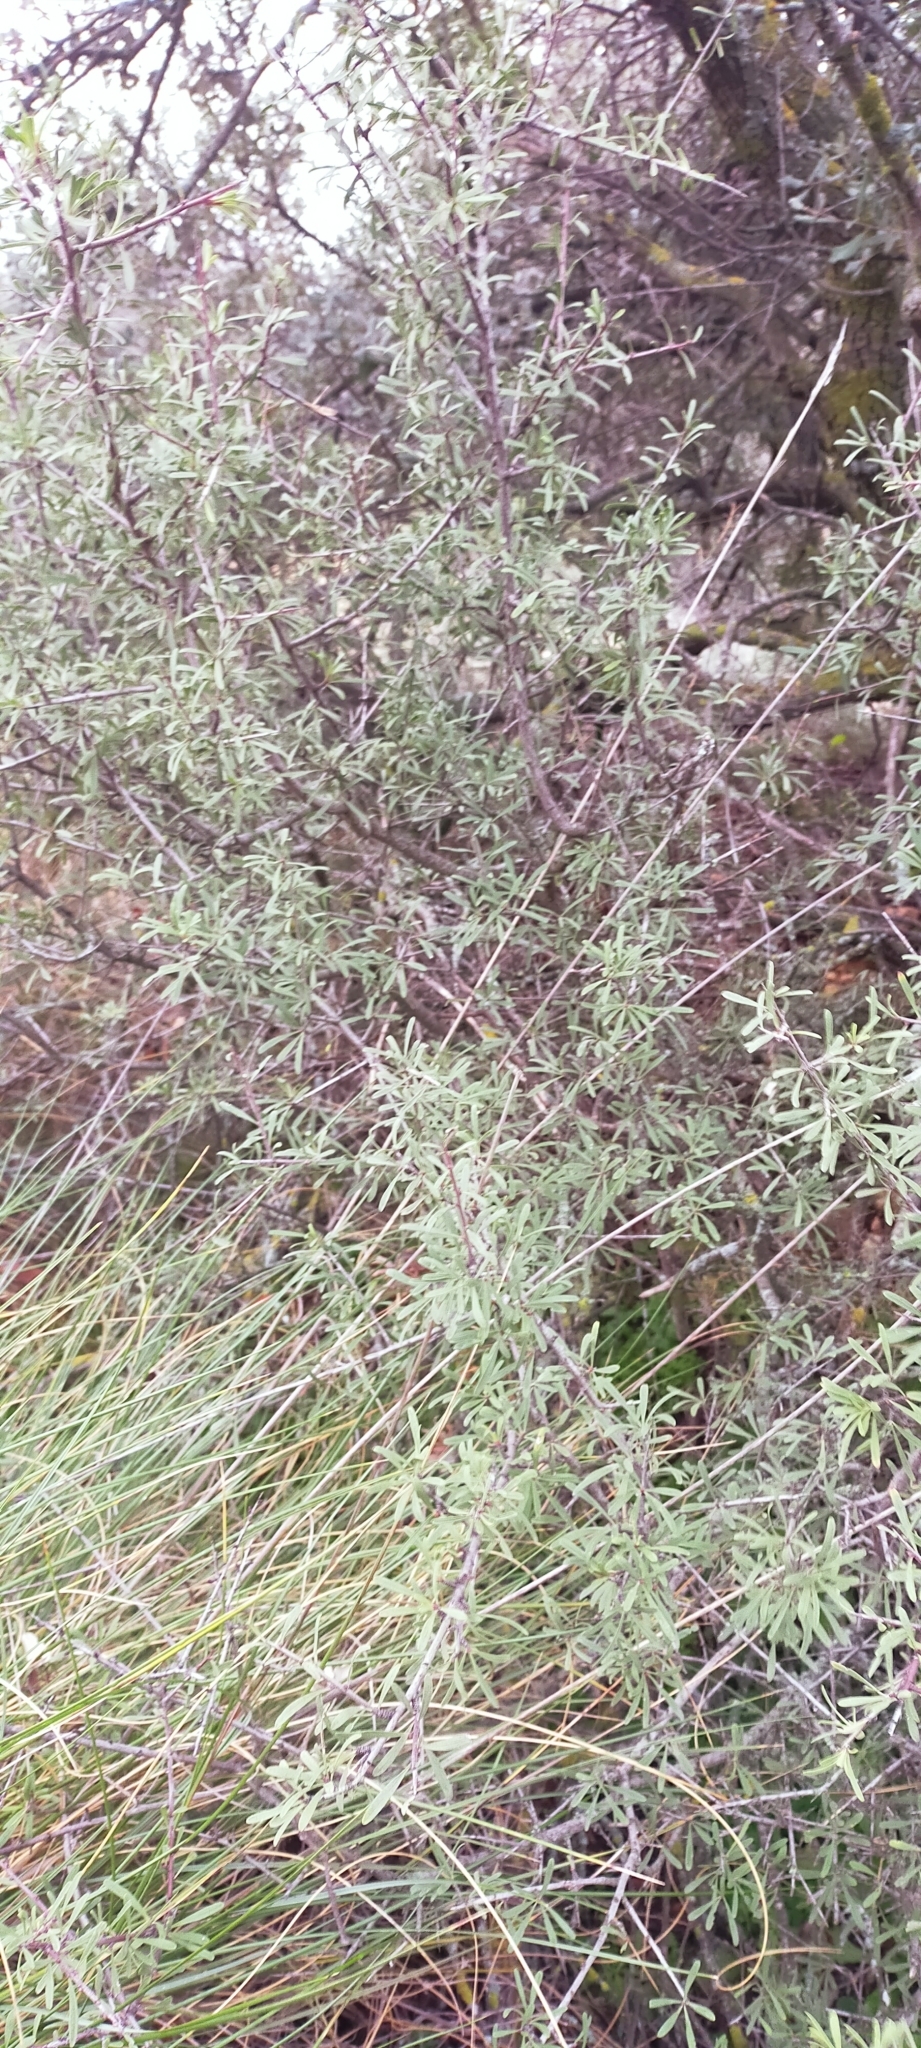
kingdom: Plantae
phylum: Tracheophyta
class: Magnoliopsida
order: Rosales
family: Rhamnaceae
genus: Rhamnus
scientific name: Rhamnus lycioides
